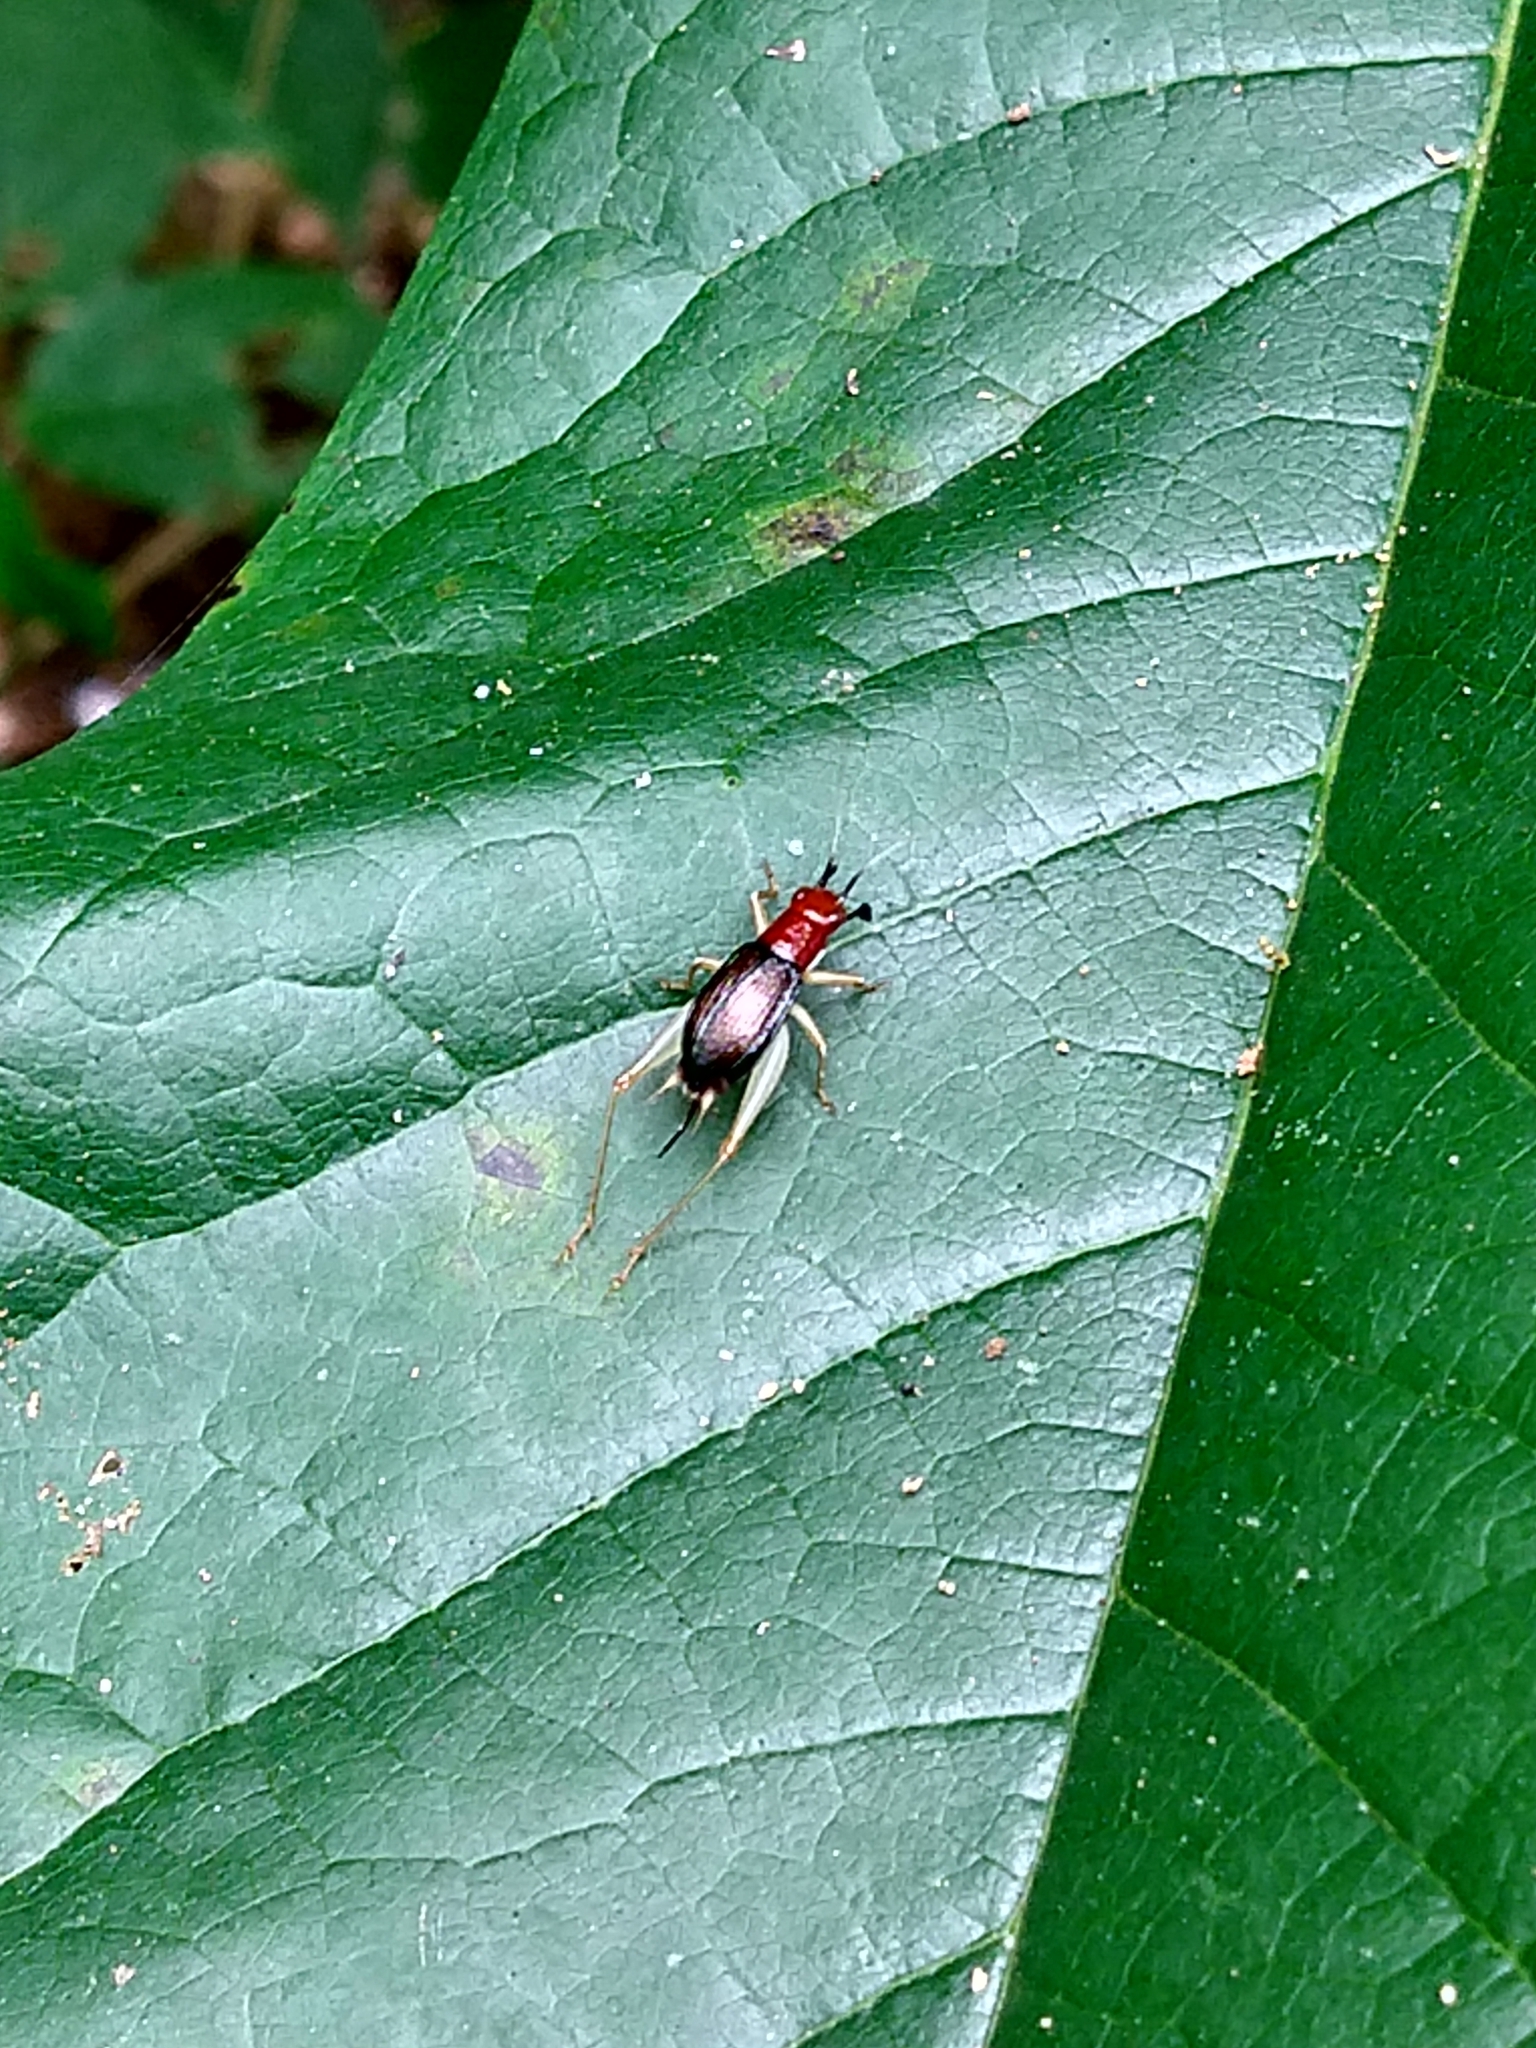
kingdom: Animalia
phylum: Arthropoda
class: Insecta
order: Orthoptera
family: Trigonidiidae
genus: Phyllopalpus
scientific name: Phyllopalpus pulchellus
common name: Handsome trig
